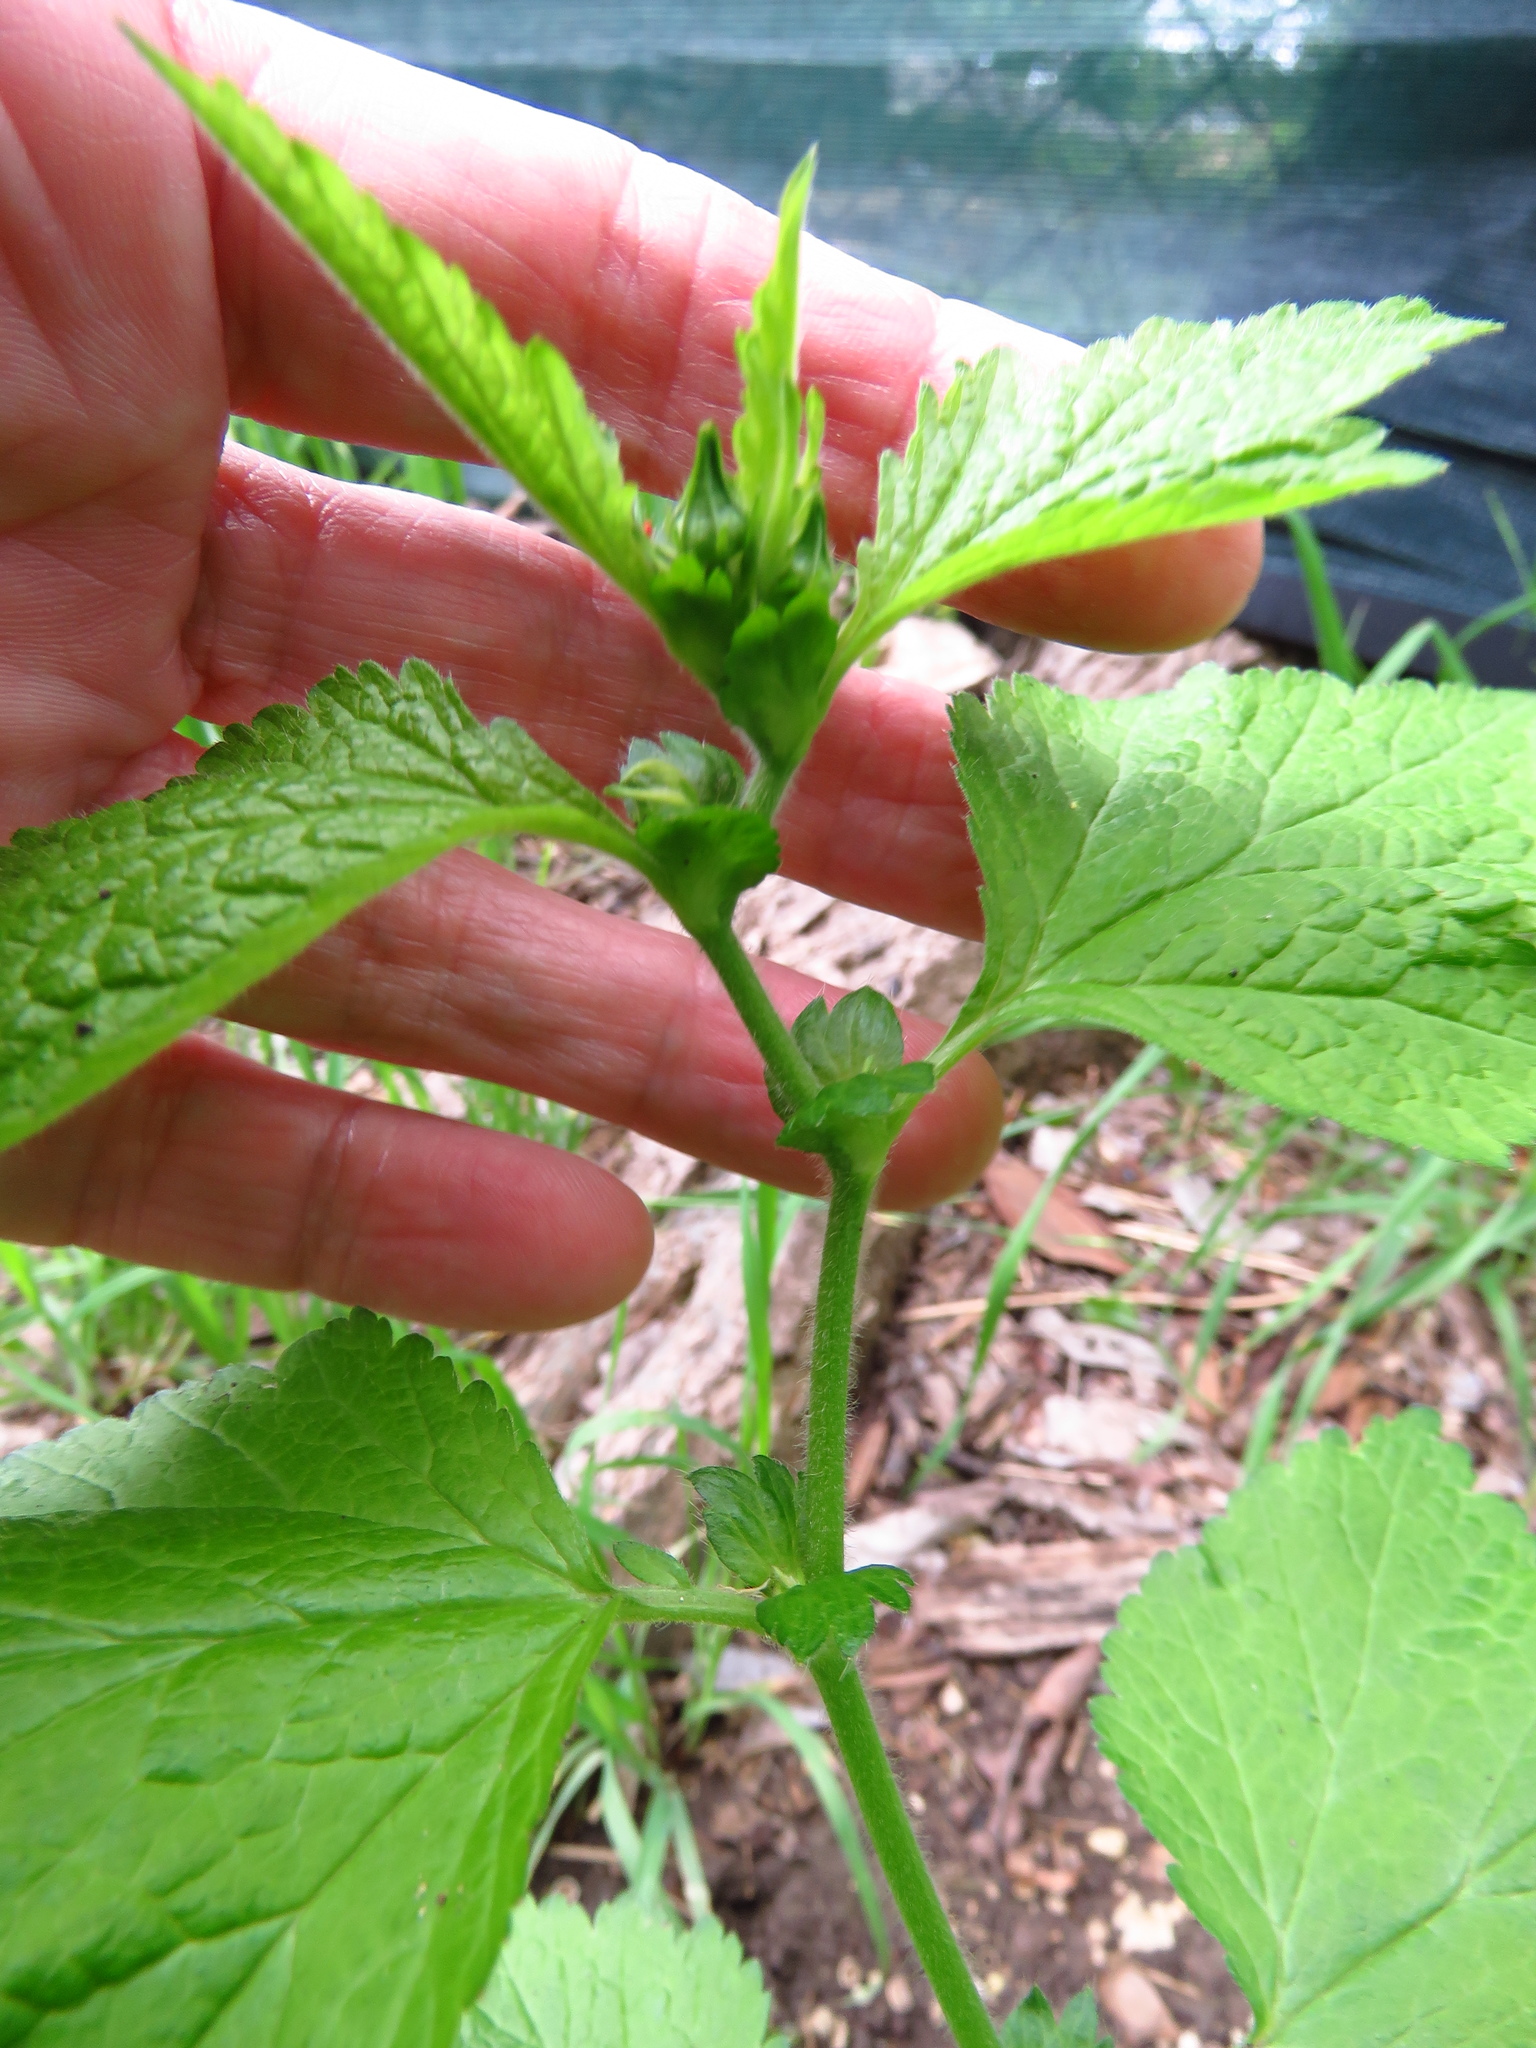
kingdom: Plantae
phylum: Tracheophyta
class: Magnoliopsida
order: Rosales
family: Rosaceae
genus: Geum
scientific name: Geum canadense
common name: White avens
